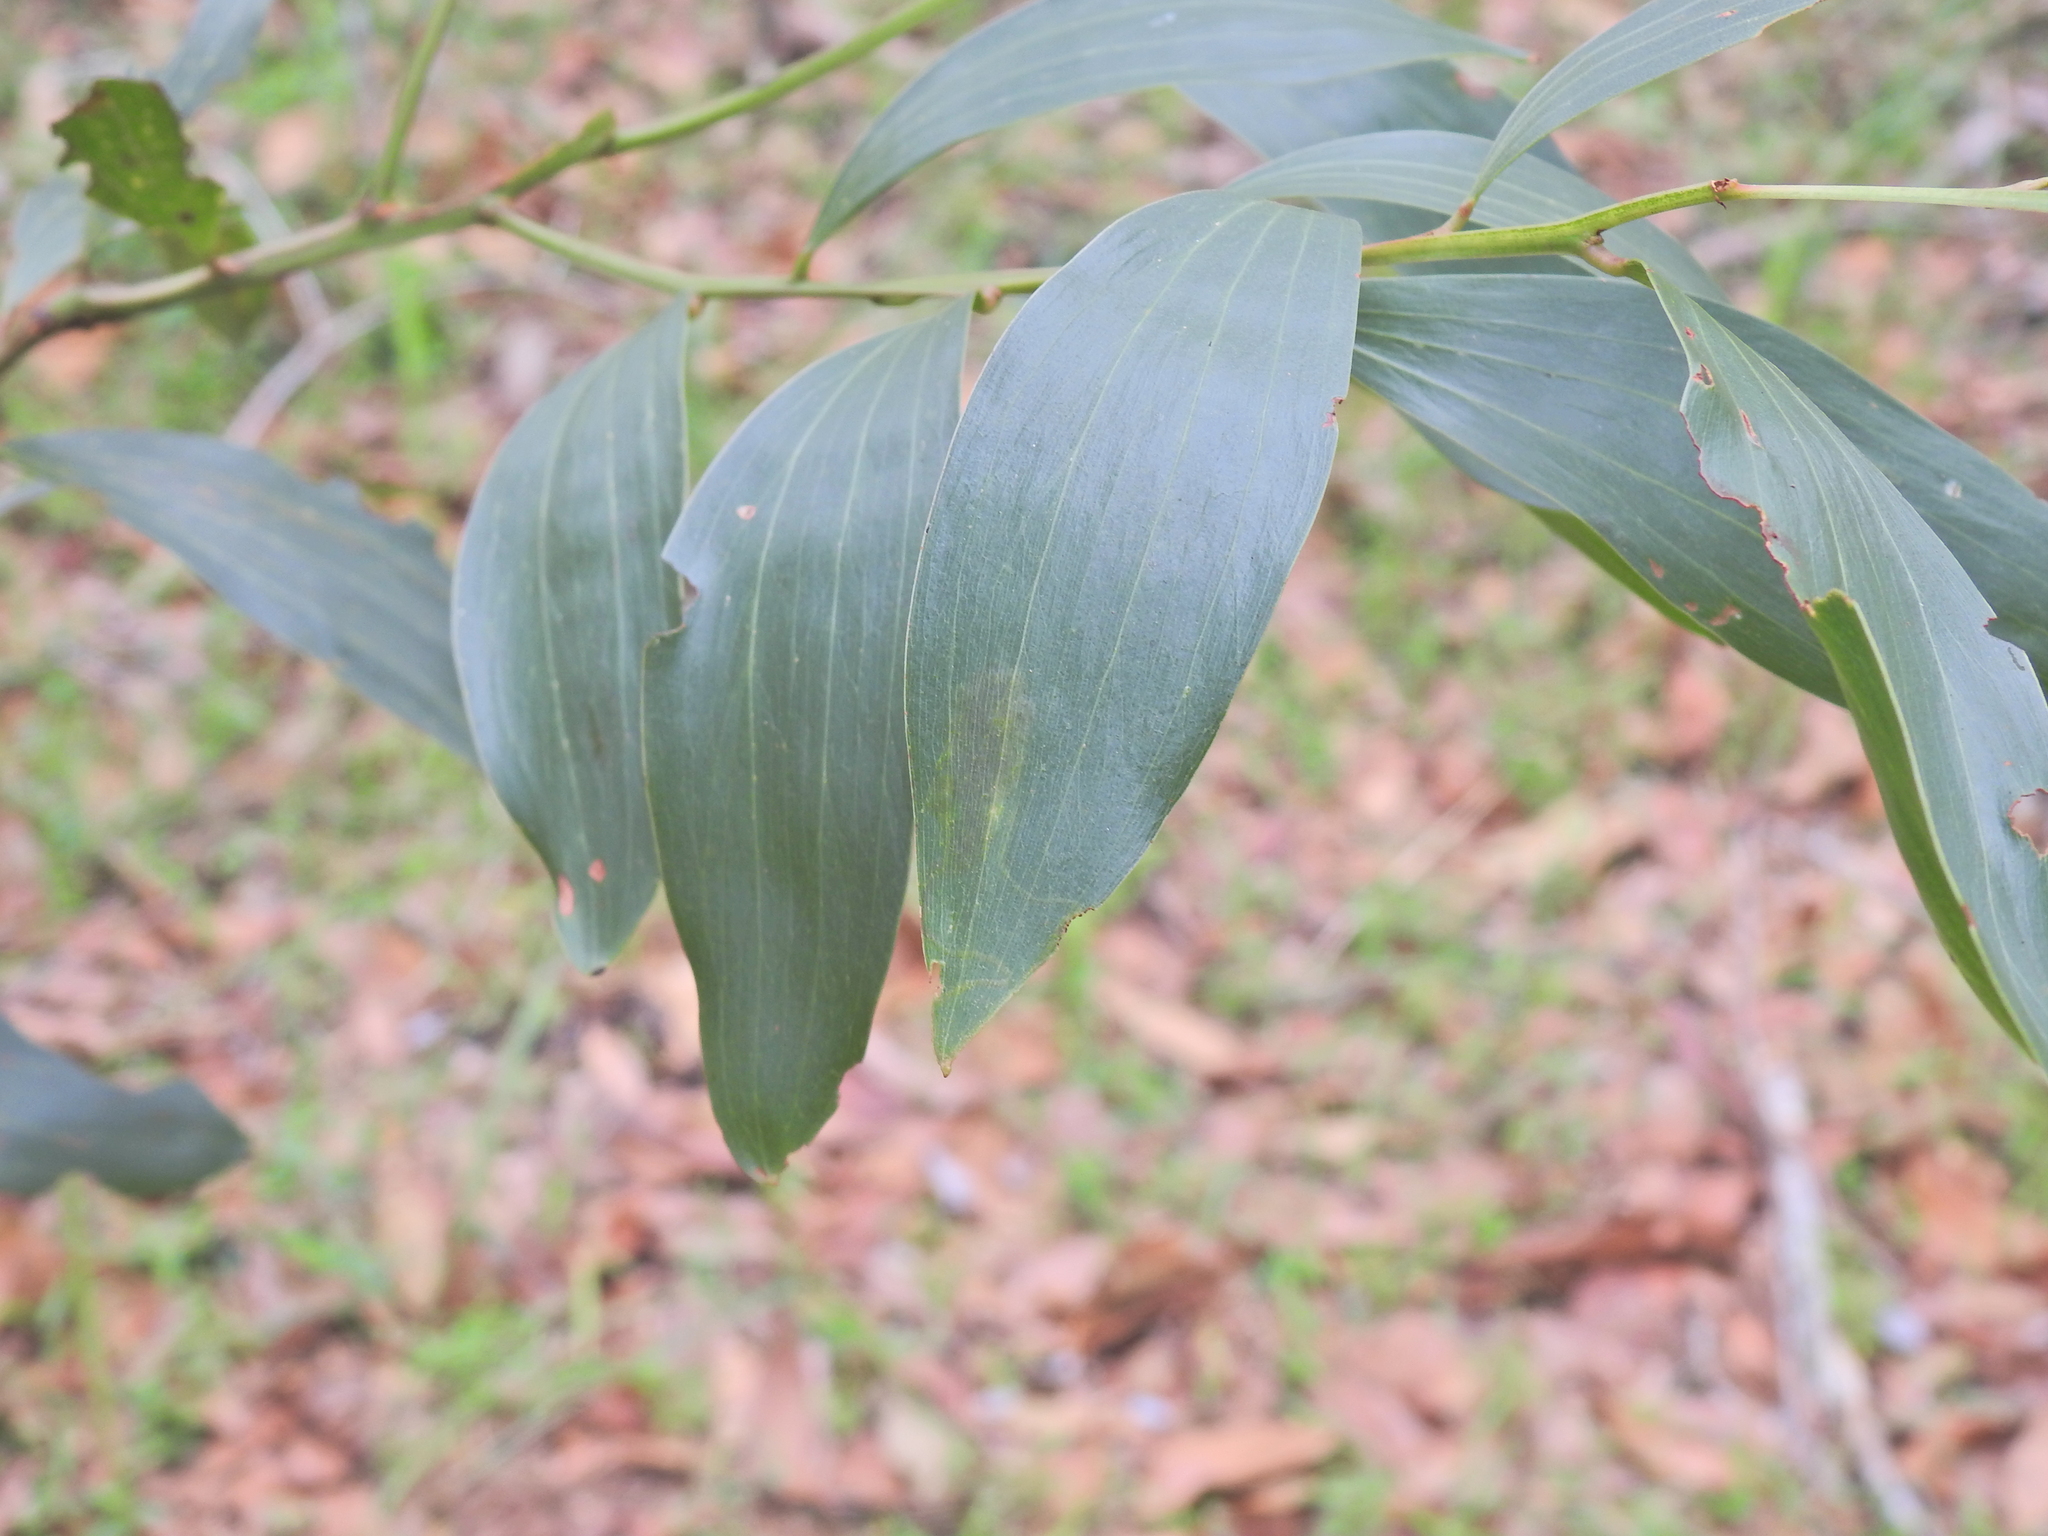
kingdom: Animalia
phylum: Arthropoda
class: Insecta
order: Lepidoptera
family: Gracillariidae
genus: Acrocercops
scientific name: Acrocercops didymella
